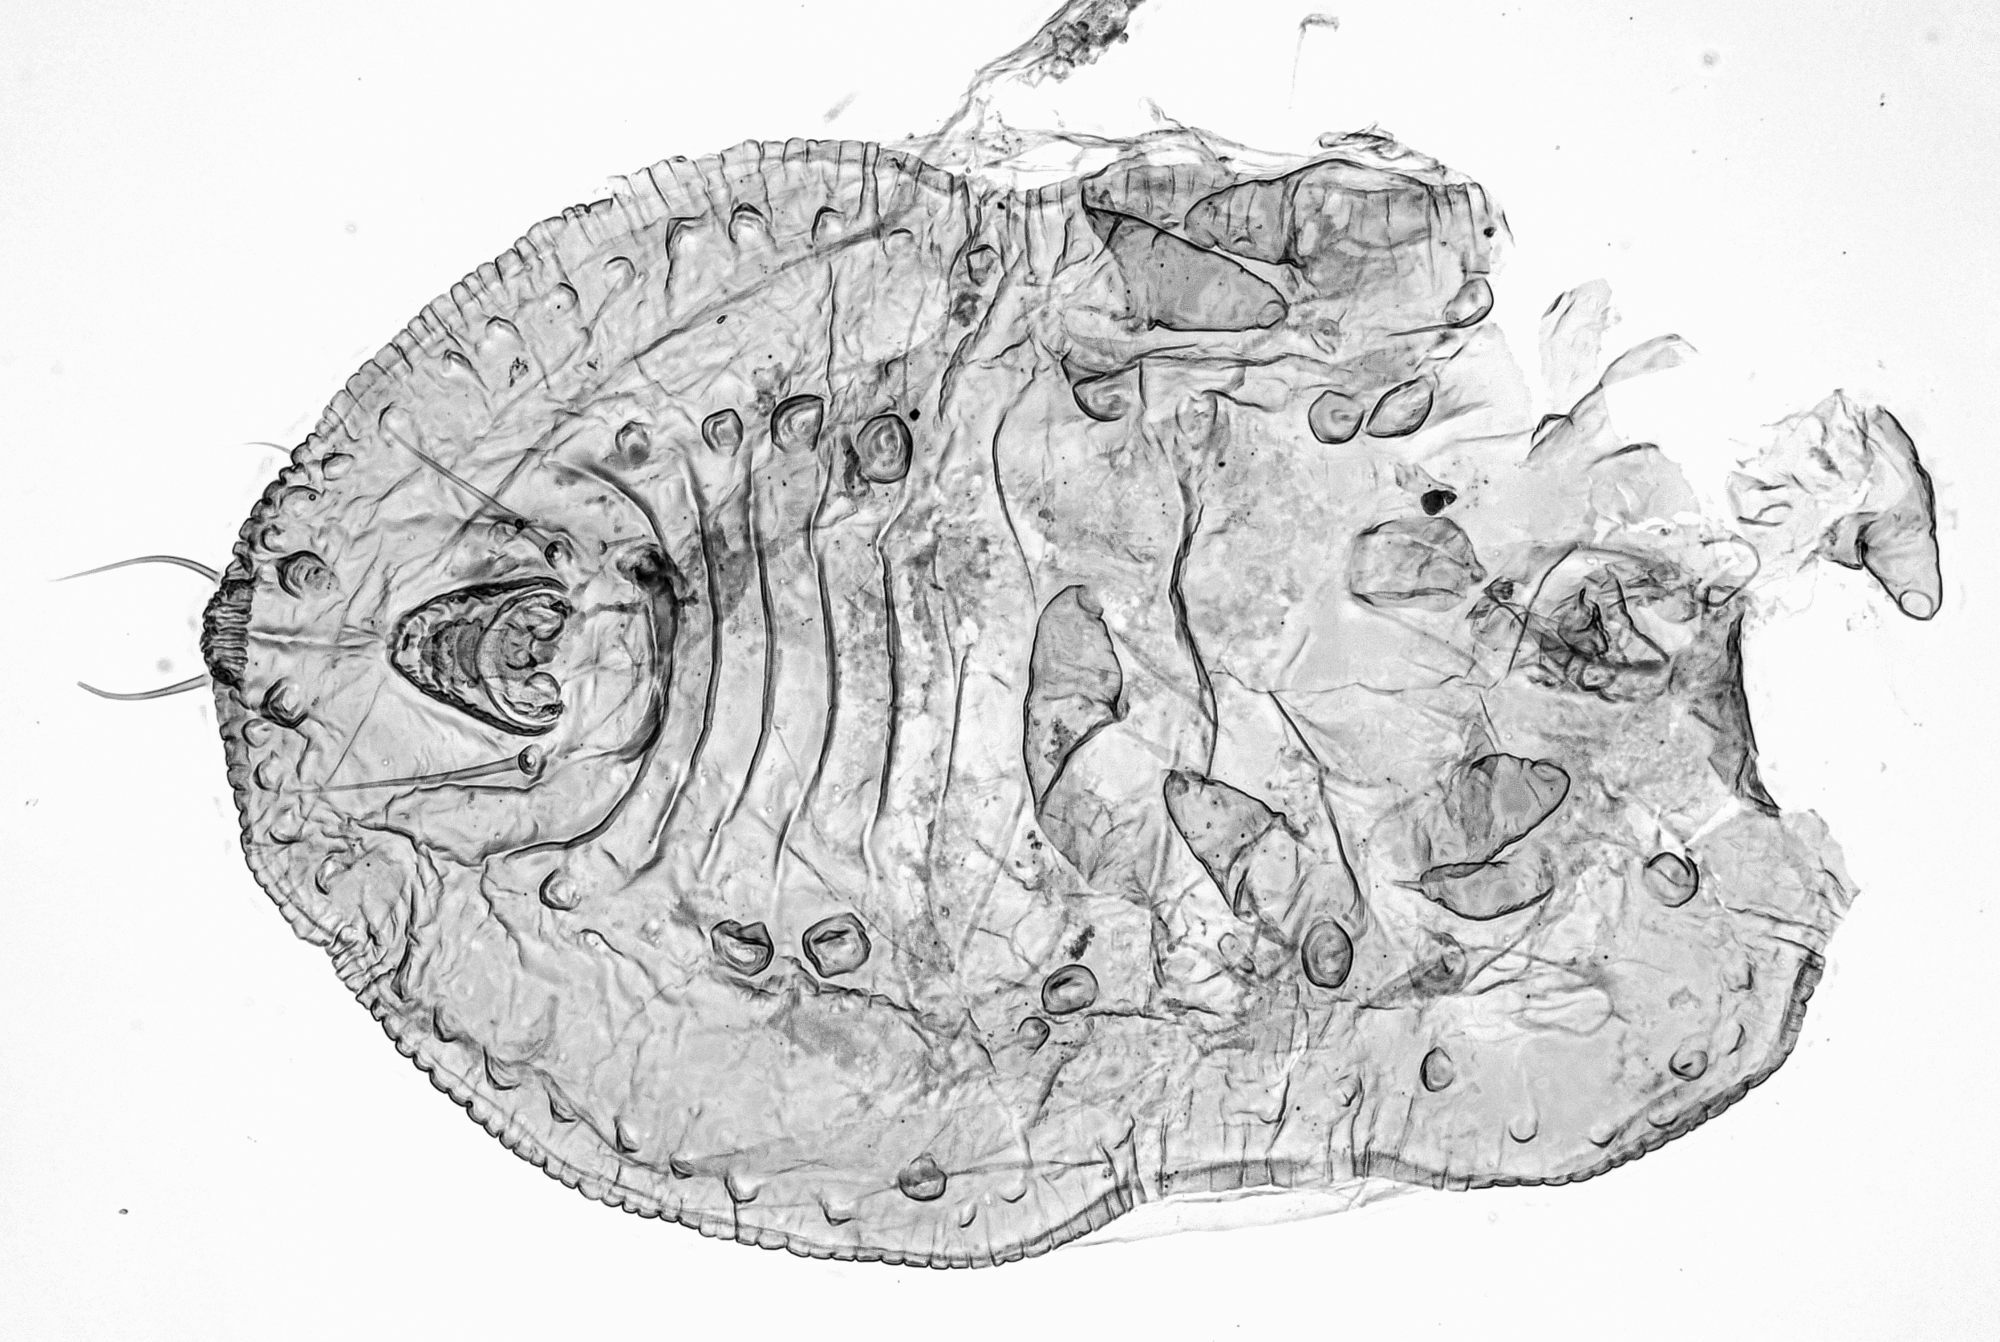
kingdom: Animalia
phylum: Arthropoda
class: Insecta
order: Hemiptera
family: Aleyrodidae
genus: Trialeurodes
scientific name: Trialeurodes vaporariorum
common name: Greenhouse white fly
